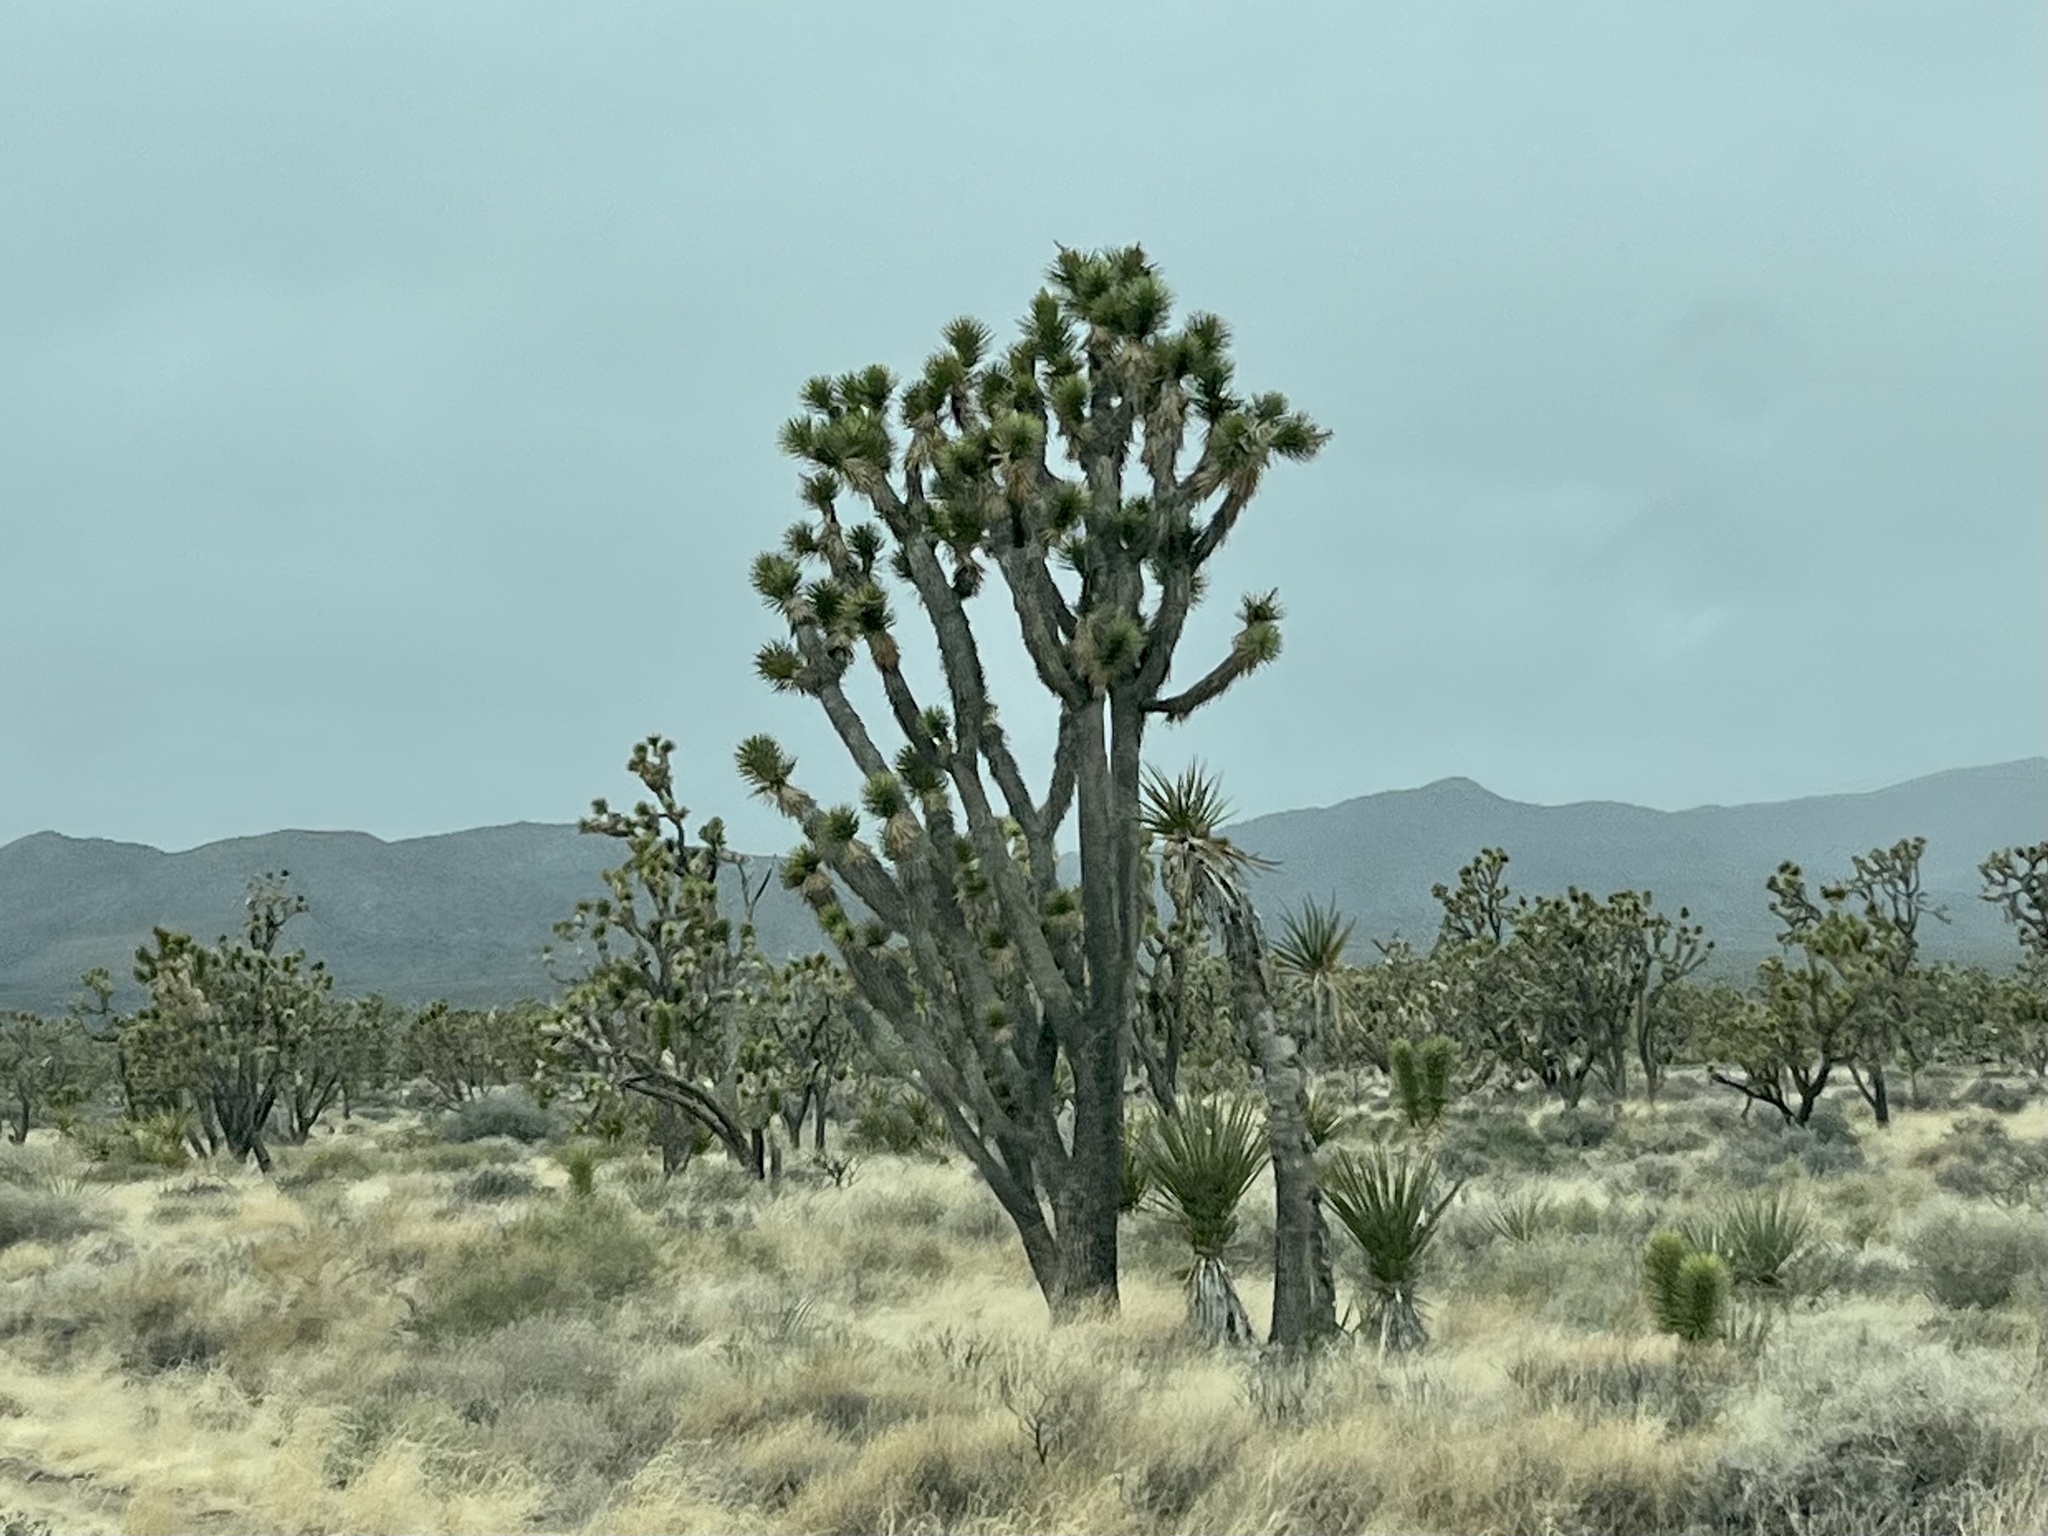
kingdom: Plantae
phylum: Tracheophyta
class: Liliopsida
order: Asparagales
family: Asparagaceae
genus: Yucca
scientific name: Yucca brevifolia
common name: Joshua tree
